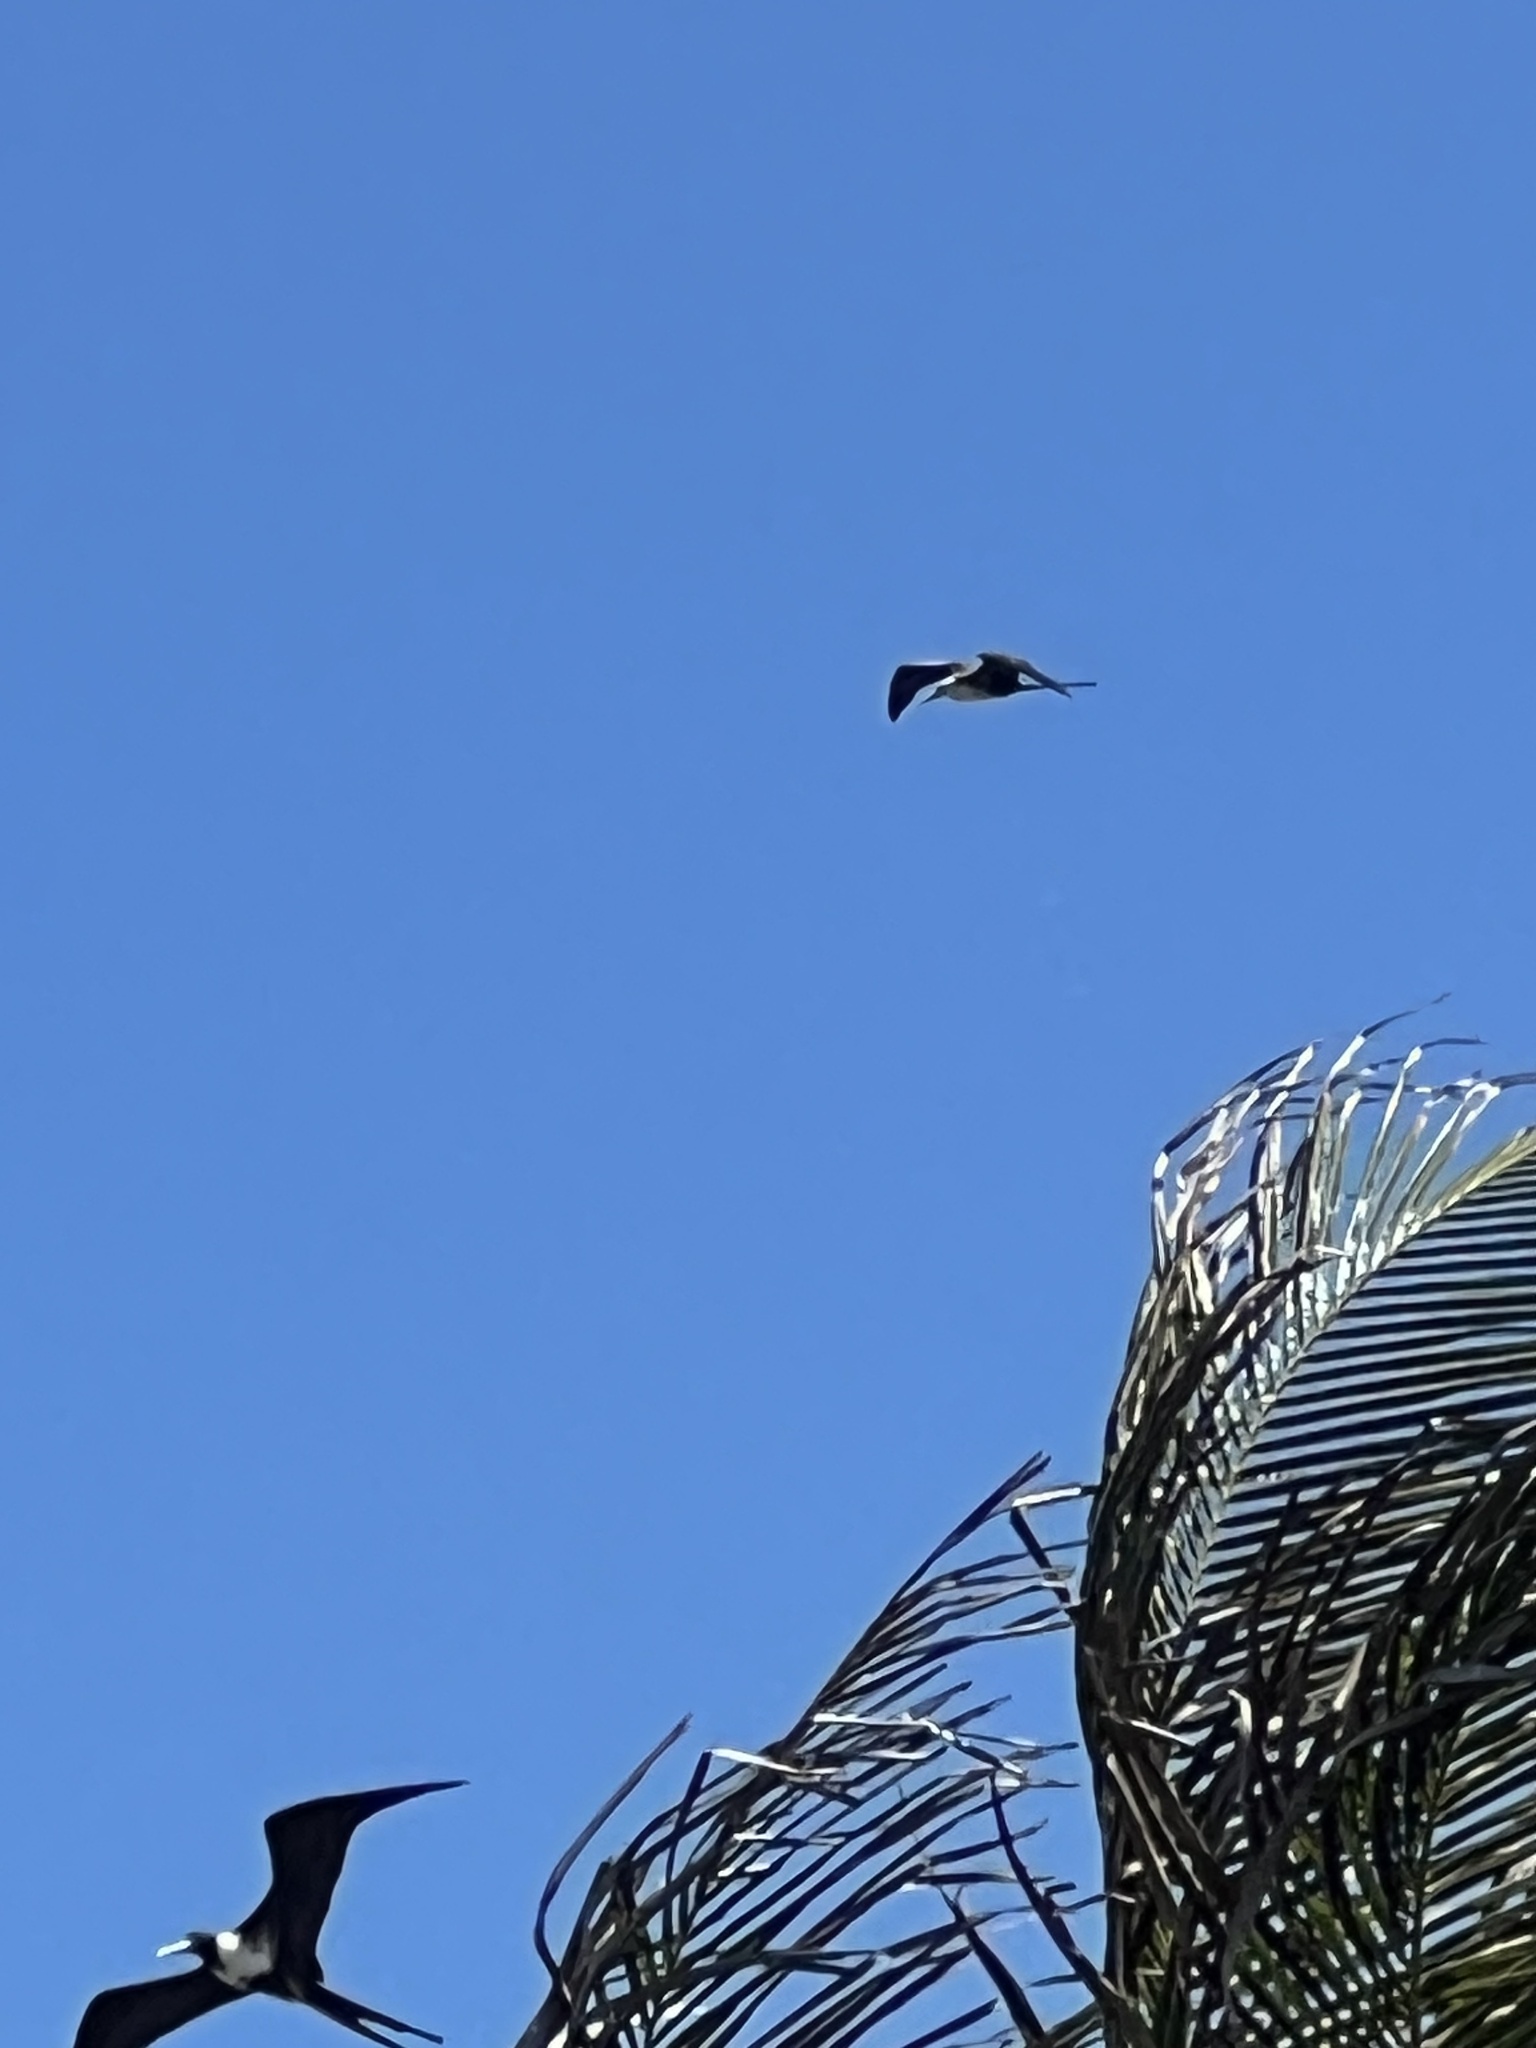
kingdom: Animalia
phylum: Chordata
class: Aves
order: Suliformes
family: Fregatidae
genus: Fregata
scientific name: Fregata magnificens
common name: Magnificent frigatebird
